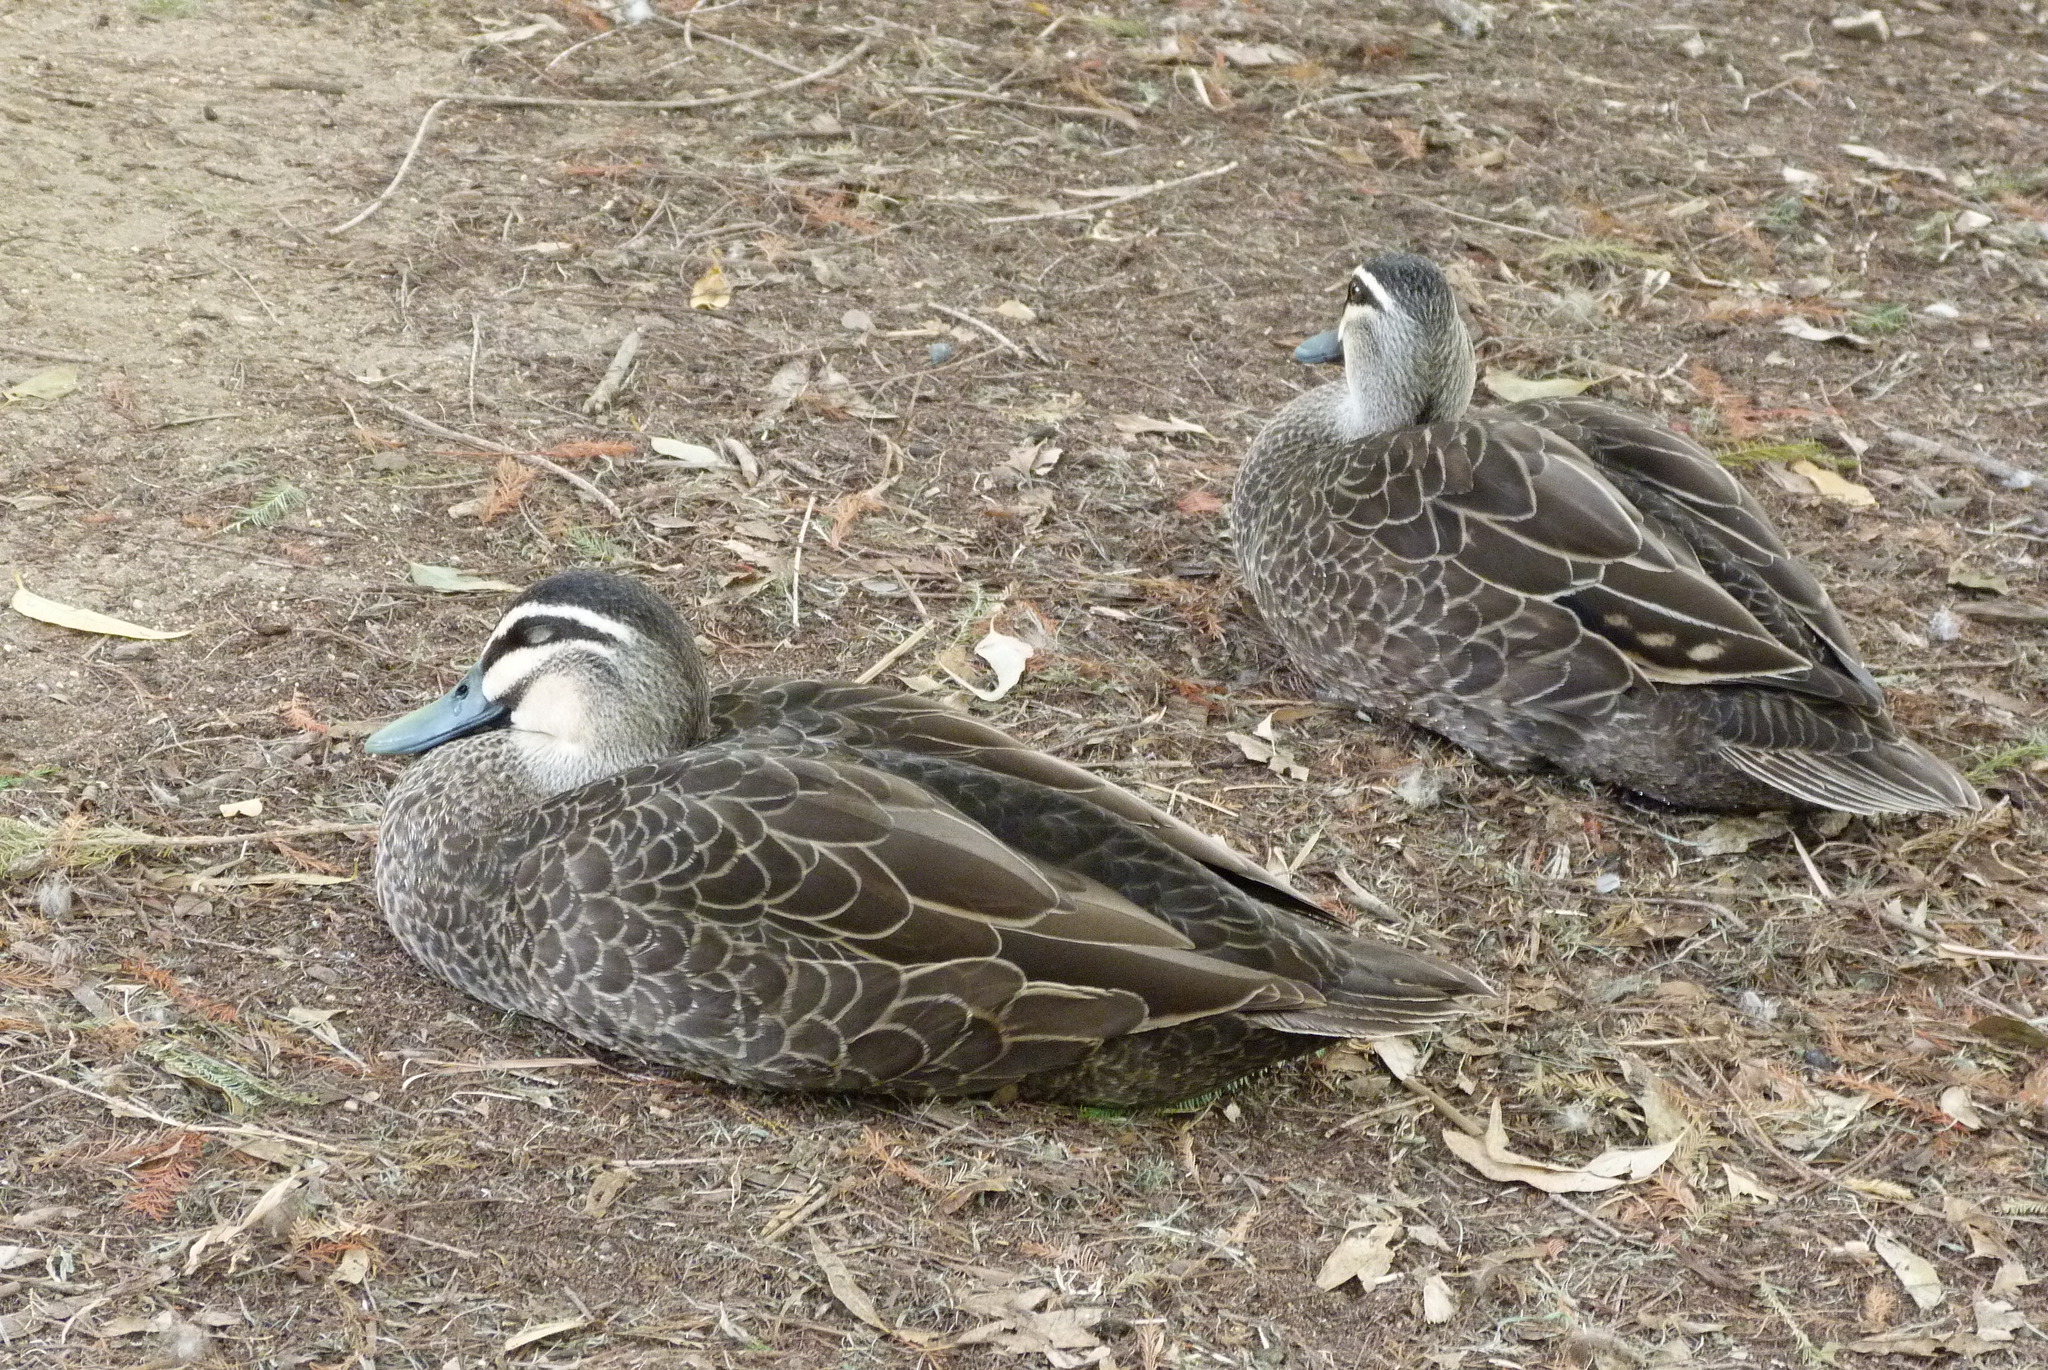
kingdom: Animalia
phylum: Chordata
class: Aves
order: Anseriformes
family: Anatidae
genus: Anas
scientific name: Anas superciliosa
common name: Pacific black duck
